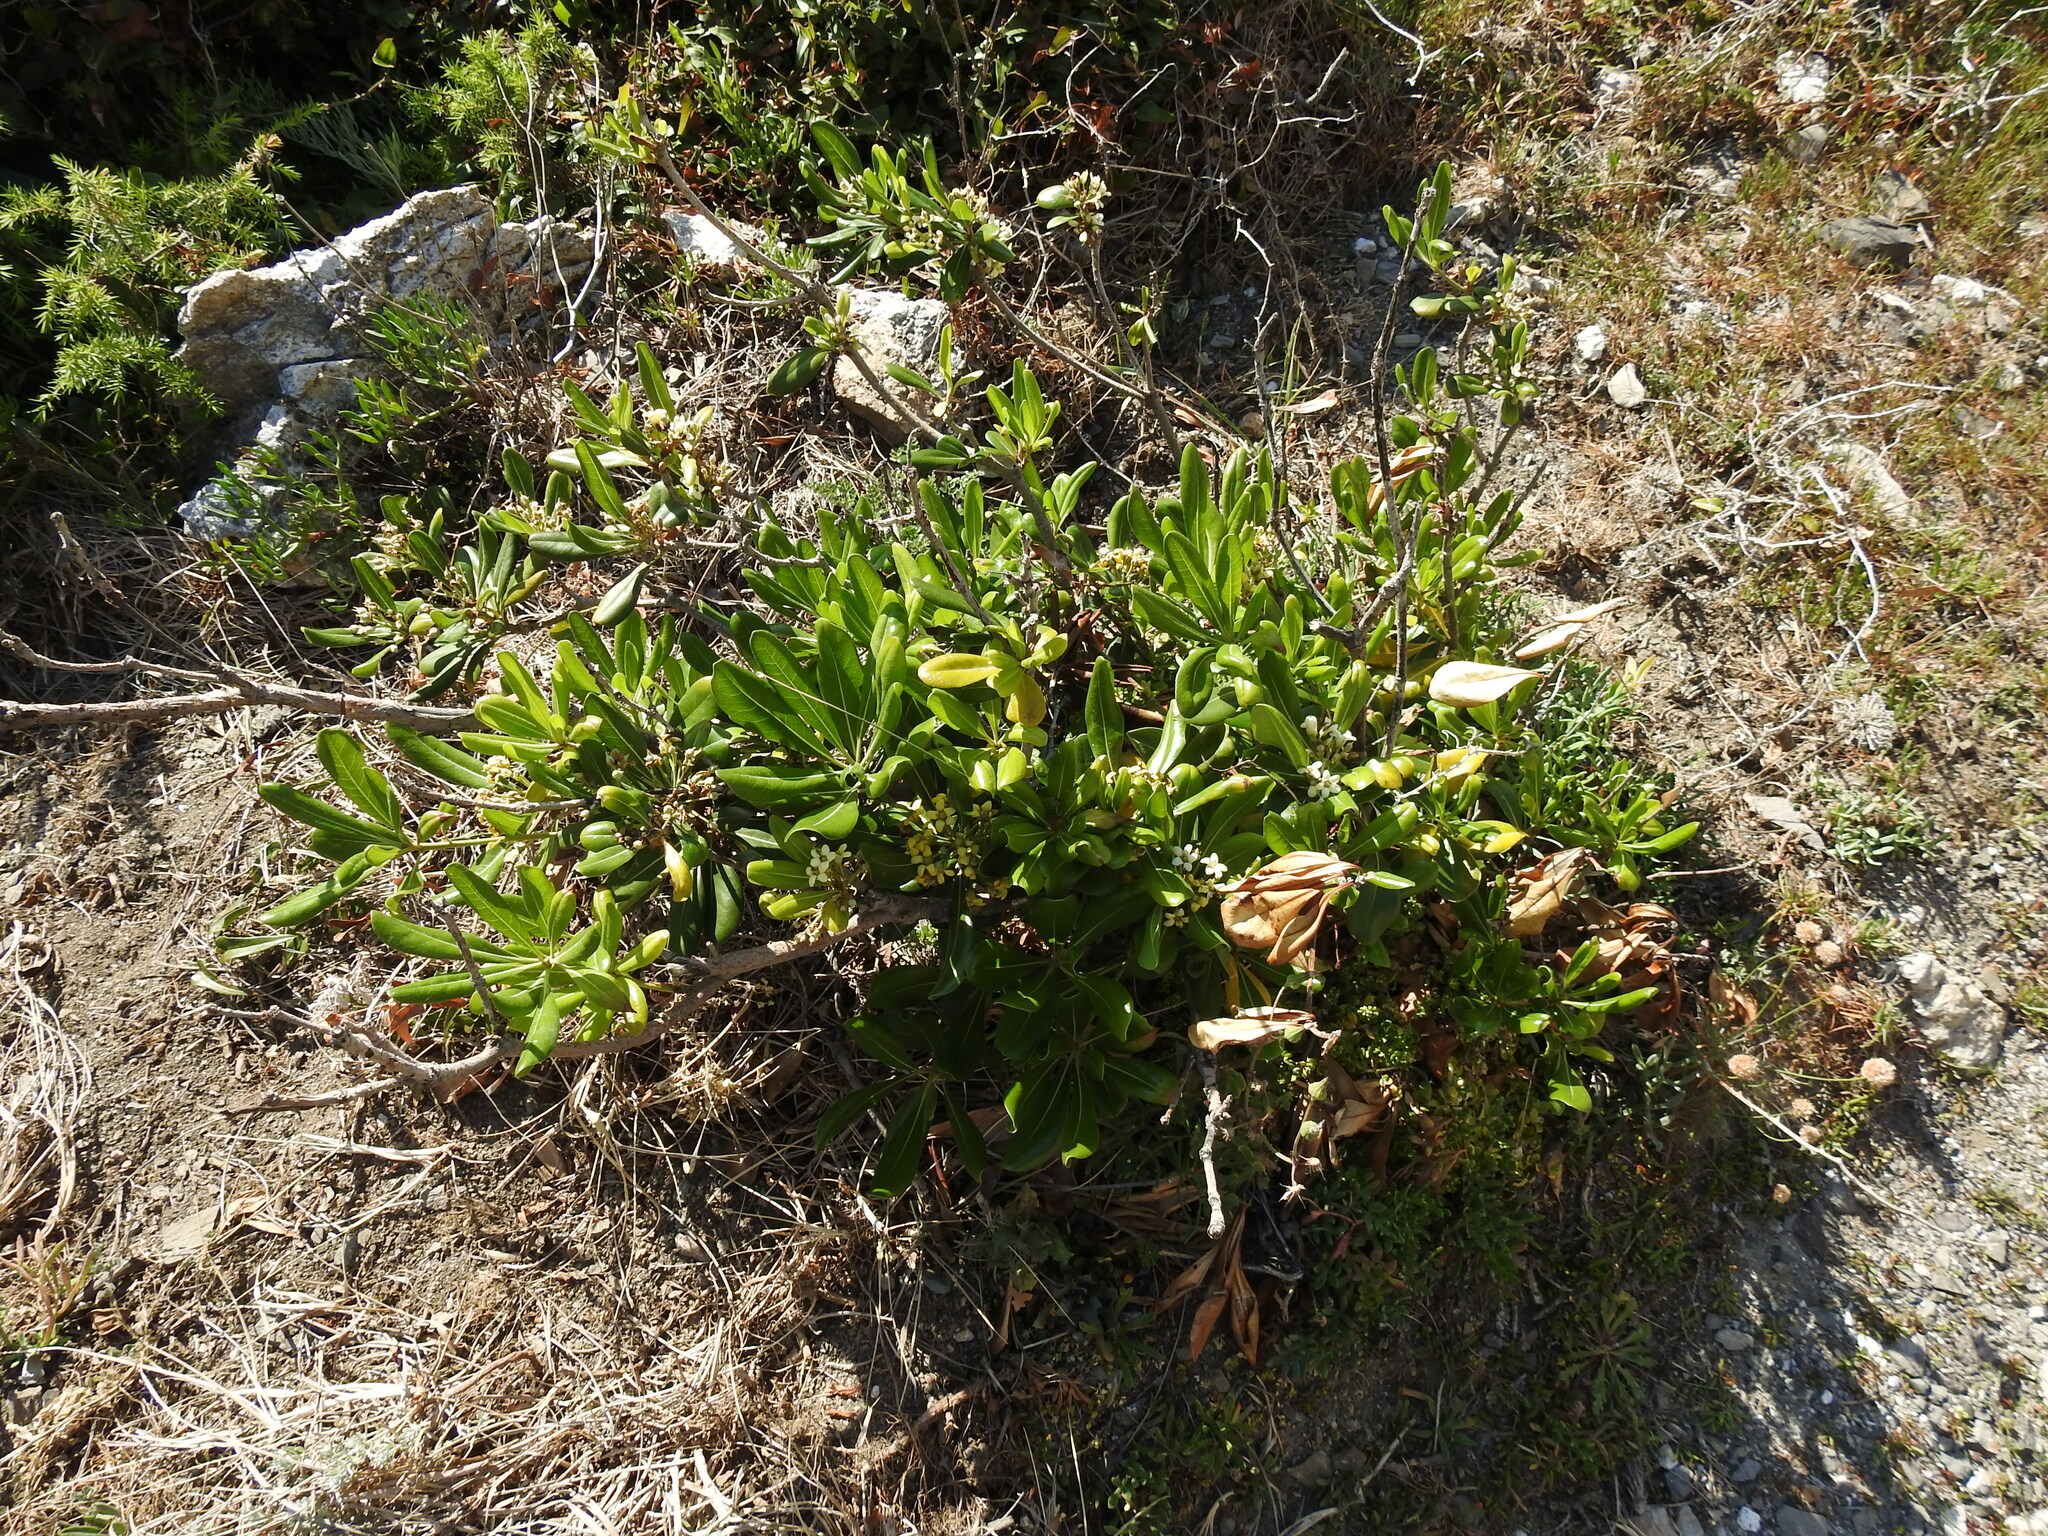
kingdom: Plantae
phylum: Tracheophyta
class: Magnoliopsida
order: Apiales
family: Pittosporaceae
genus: Pittosporum
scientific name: Pittosporum tobira
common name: Japanese cheesewood
